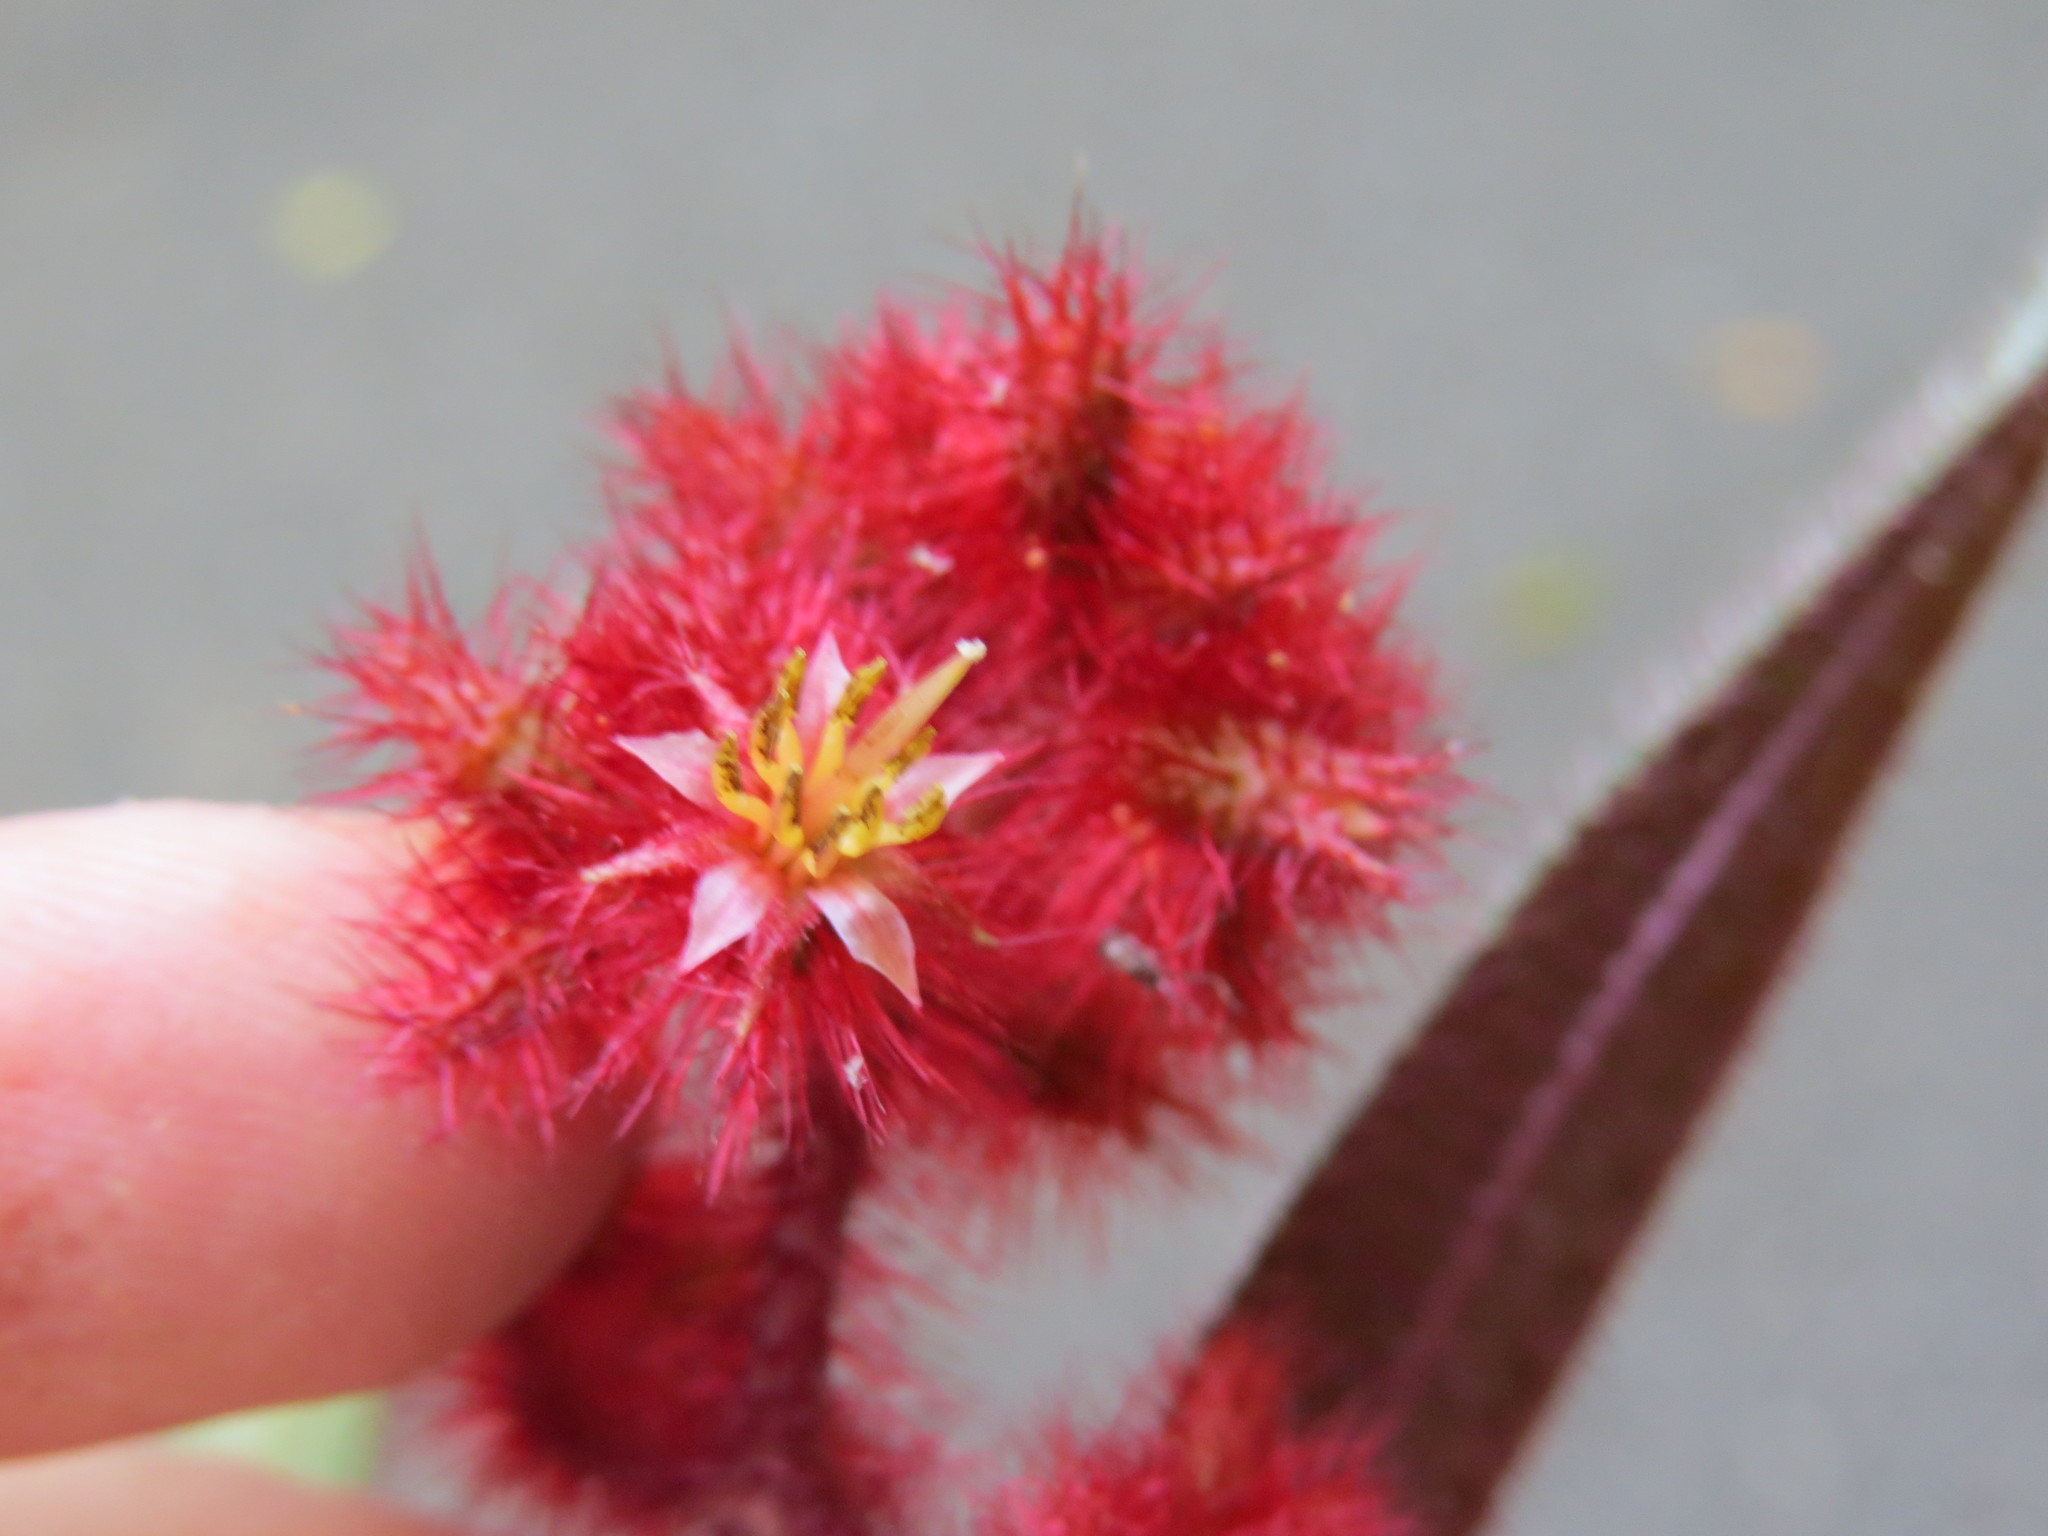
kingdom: Plantae
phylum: Tracheophyta
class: Magnoliopsida
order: Myrtales
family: Melastomataceae
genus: Miconia
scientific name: Miconia nianga
